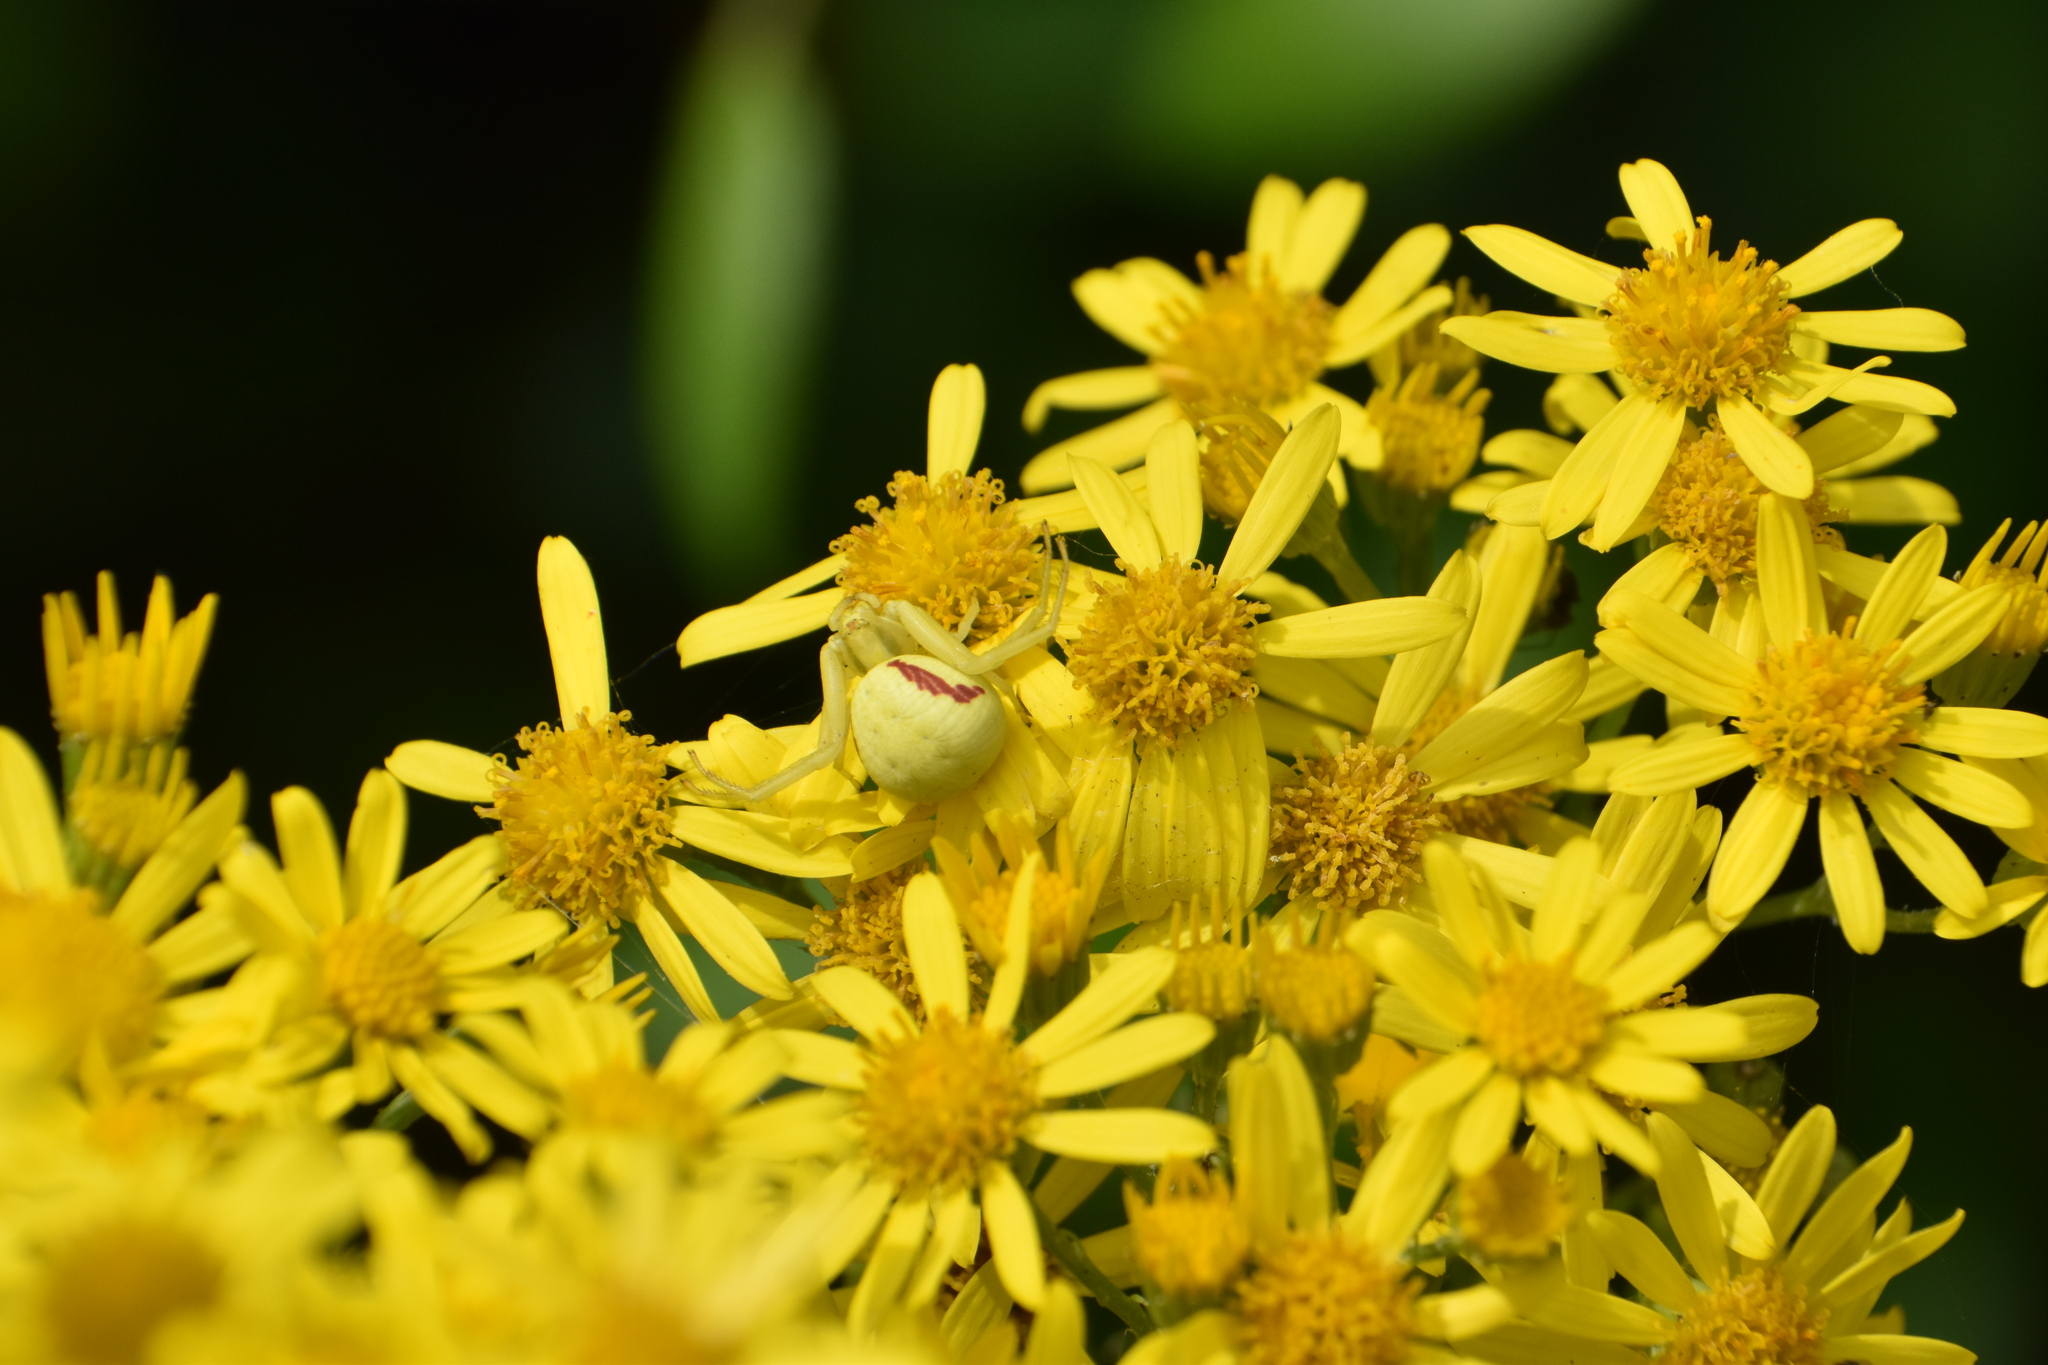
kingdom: Animalia
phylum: Arthropoda
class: Arachnida
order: Araneae
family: Thomisidae
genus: Misumena
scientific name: Misumena vatia
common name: Goldenrod crab spider
